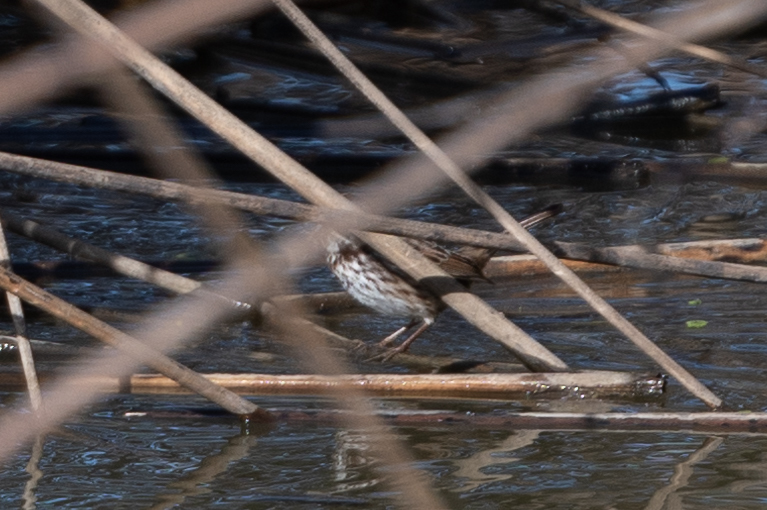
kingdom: Animalia
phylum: Chordata
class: Aves
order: Passeriformes
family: Passerellidae
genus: Melospiza
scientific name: Melospiza melodia
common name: Song sparrow
